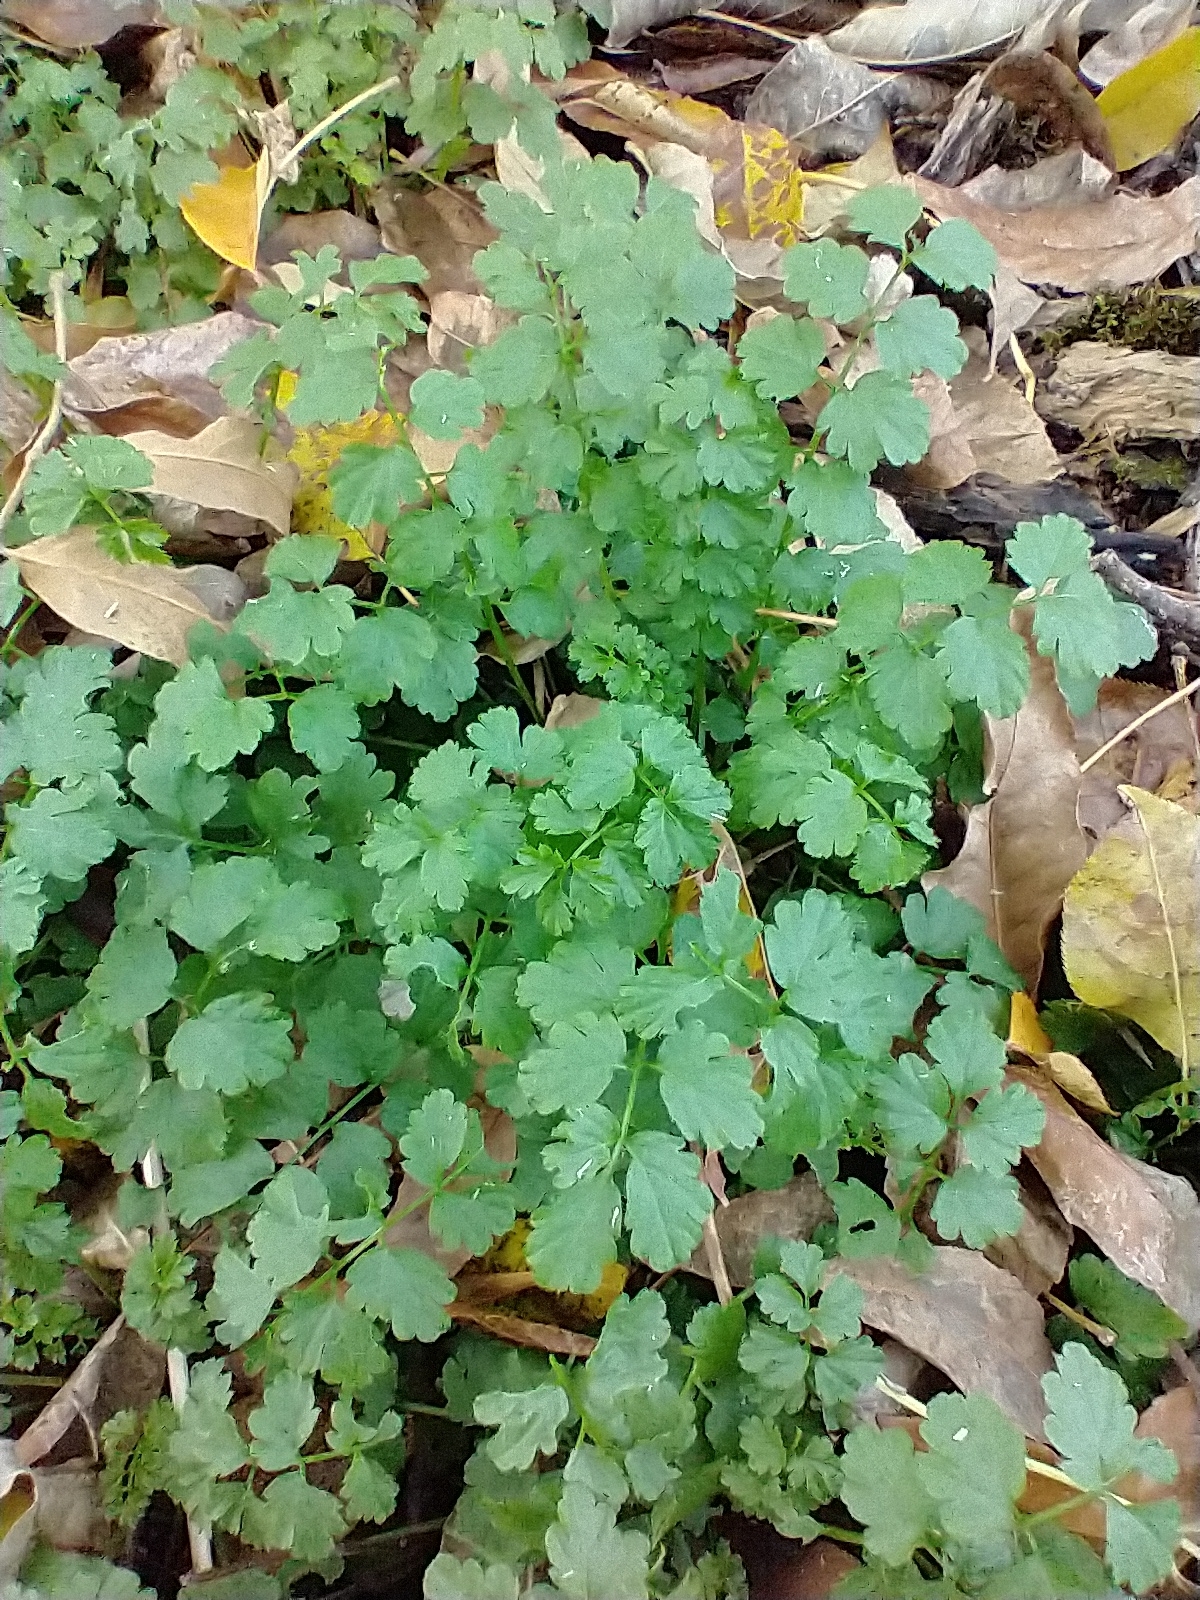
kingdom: Plantae
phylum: Tracheophyta
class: Magnoliopsida
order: Brassicales
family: Brassicaceae
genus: Cardamine
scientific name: Cardamine impatiens
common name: Narrow-leaved bitter-cress
